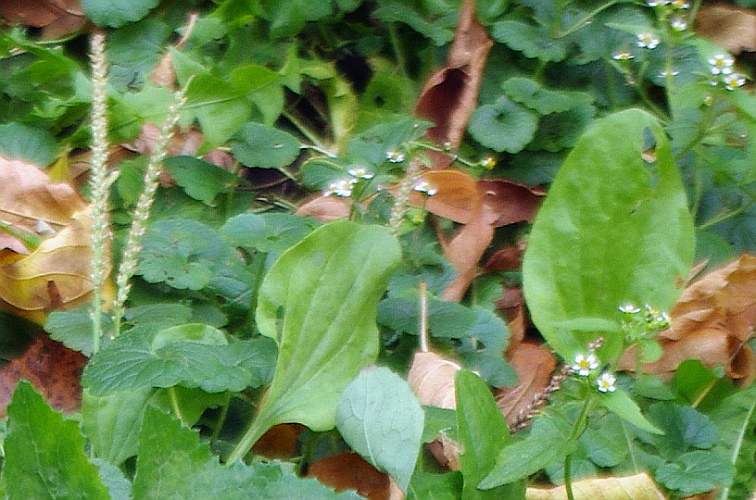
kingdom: Plantae
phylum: Tracheophyta
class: Magnoliopsida
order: Lamiales
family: Plantaginaceae
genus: Plantago
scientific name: Plantago major
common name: Common plantain
